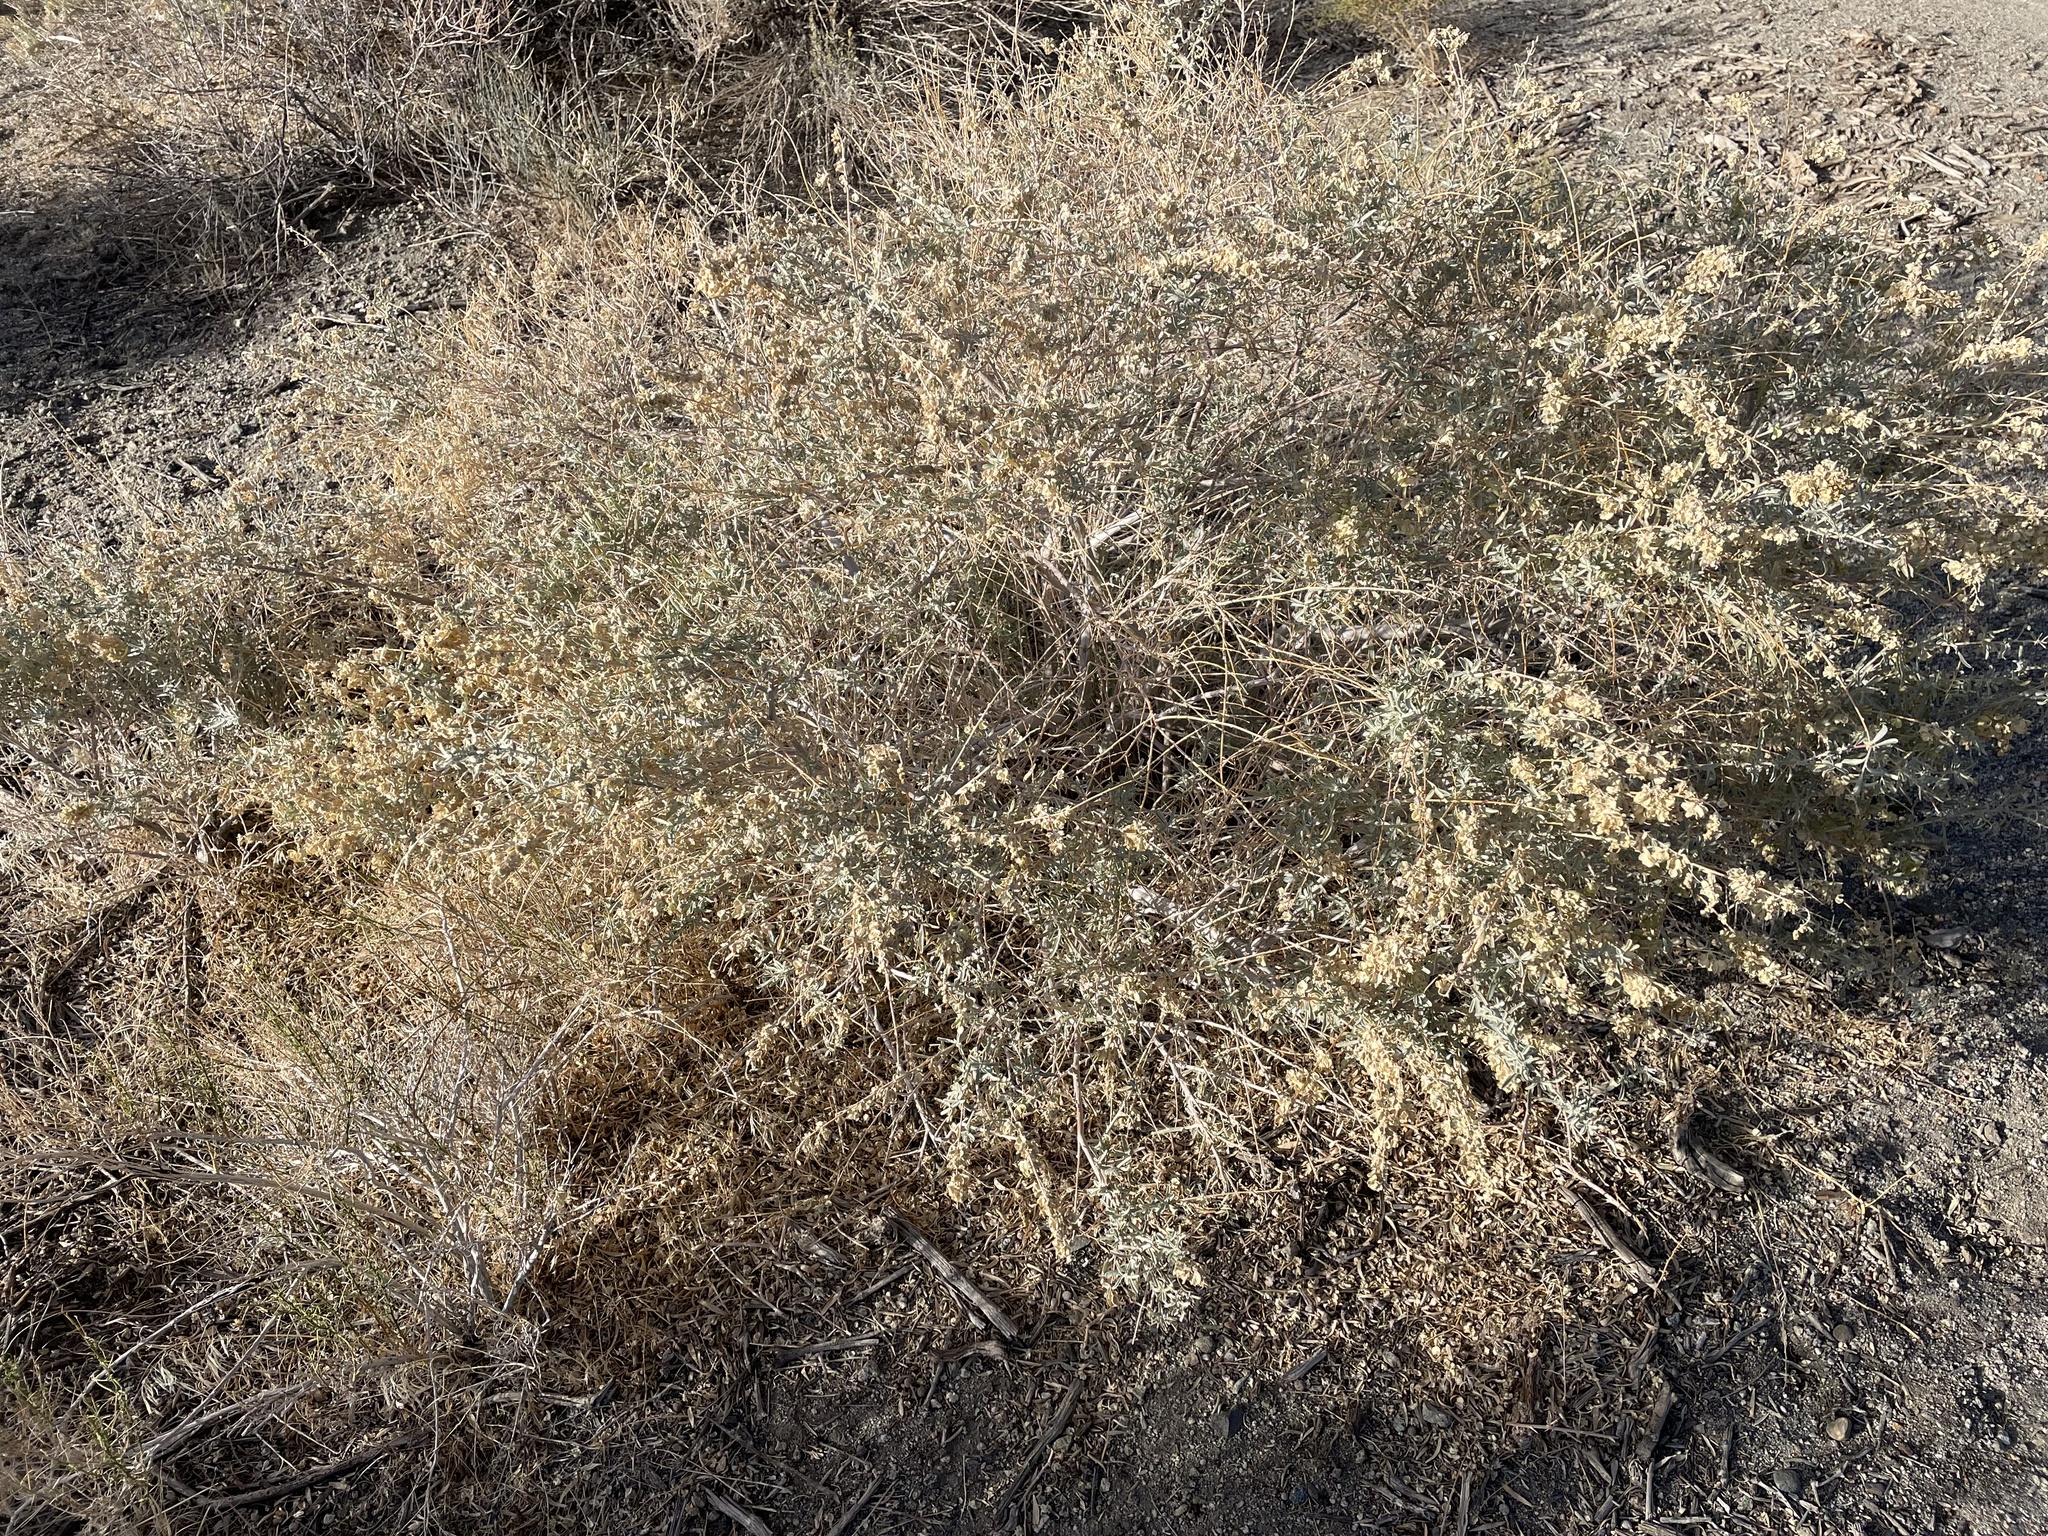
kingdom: Plantae
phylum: Tracheophyta
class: Magnoliopsida
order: Caryophyllales
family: Amaranthaceae
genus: Atriplex
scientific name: Atriplex canescens
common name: Four-wing saltbush
